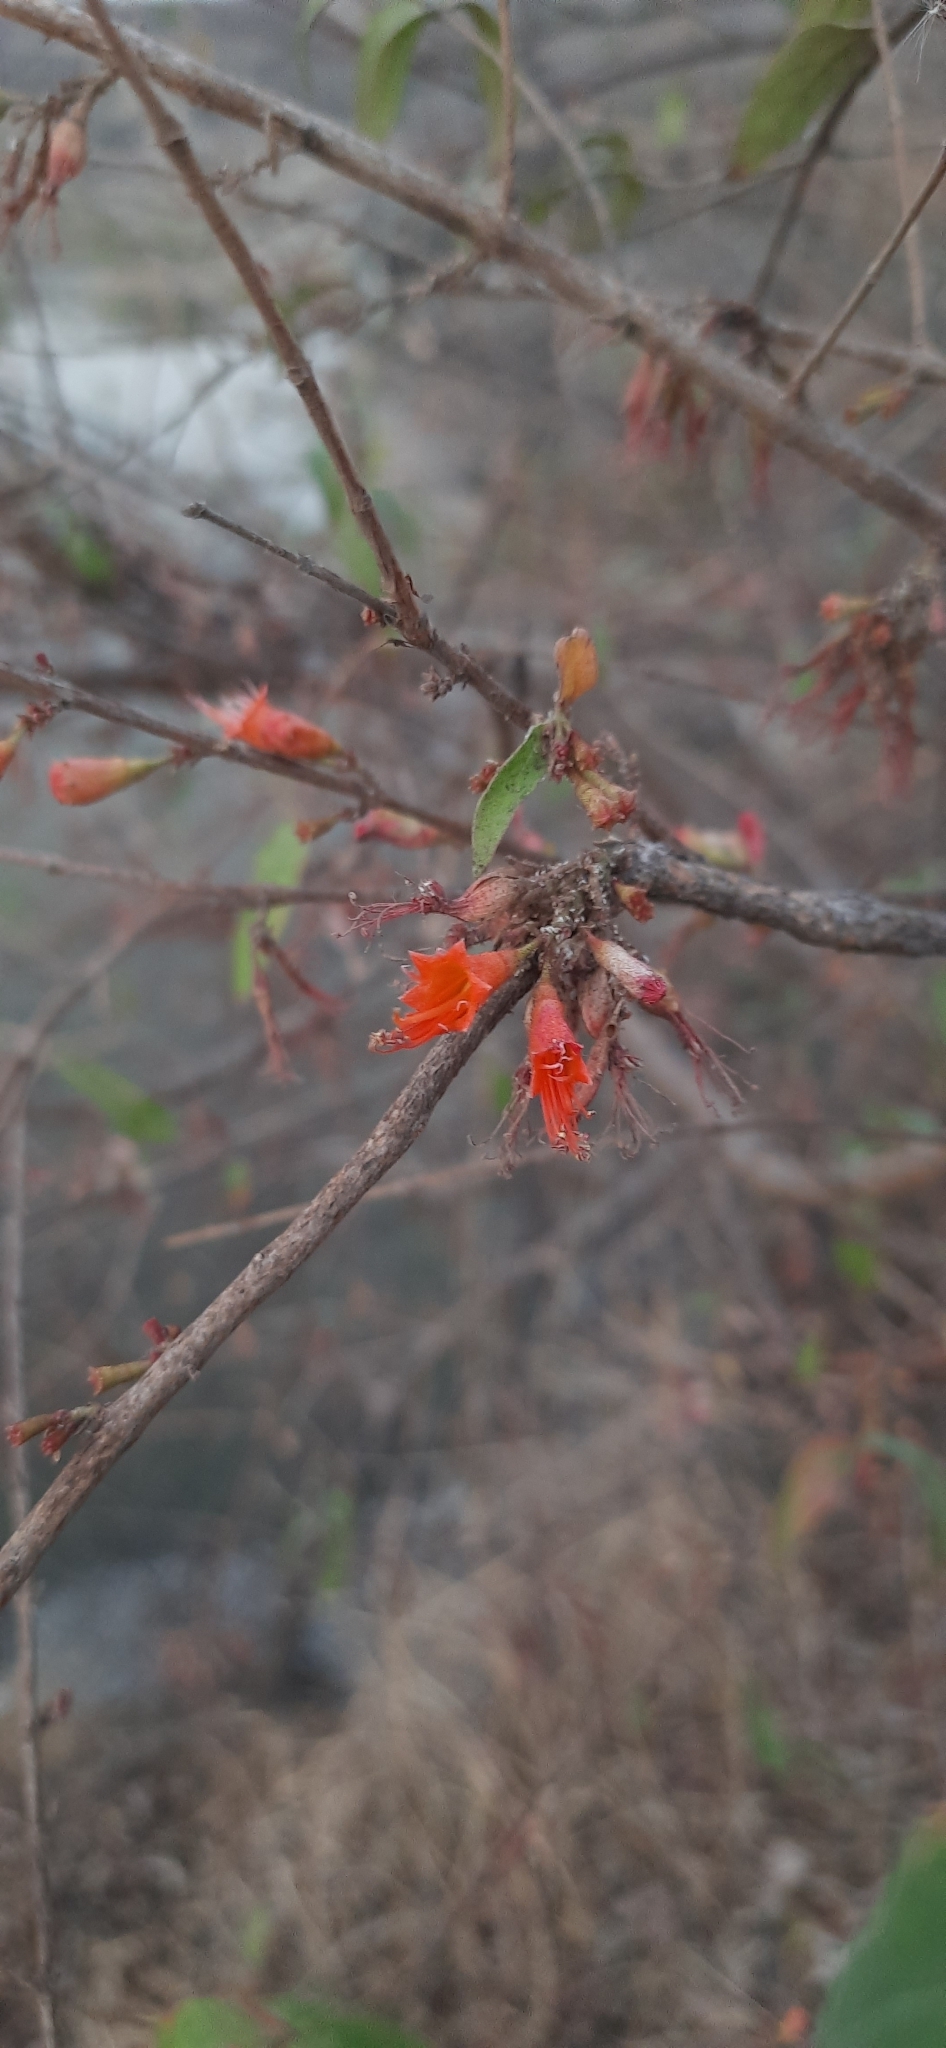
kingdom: Plantae
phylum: Tracheophyta
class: Magnoliopsida
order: Myrtales
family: Lythraceae
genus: Woodfordia
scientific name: Woodfordia fruticosa
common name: Shiranji-tea
